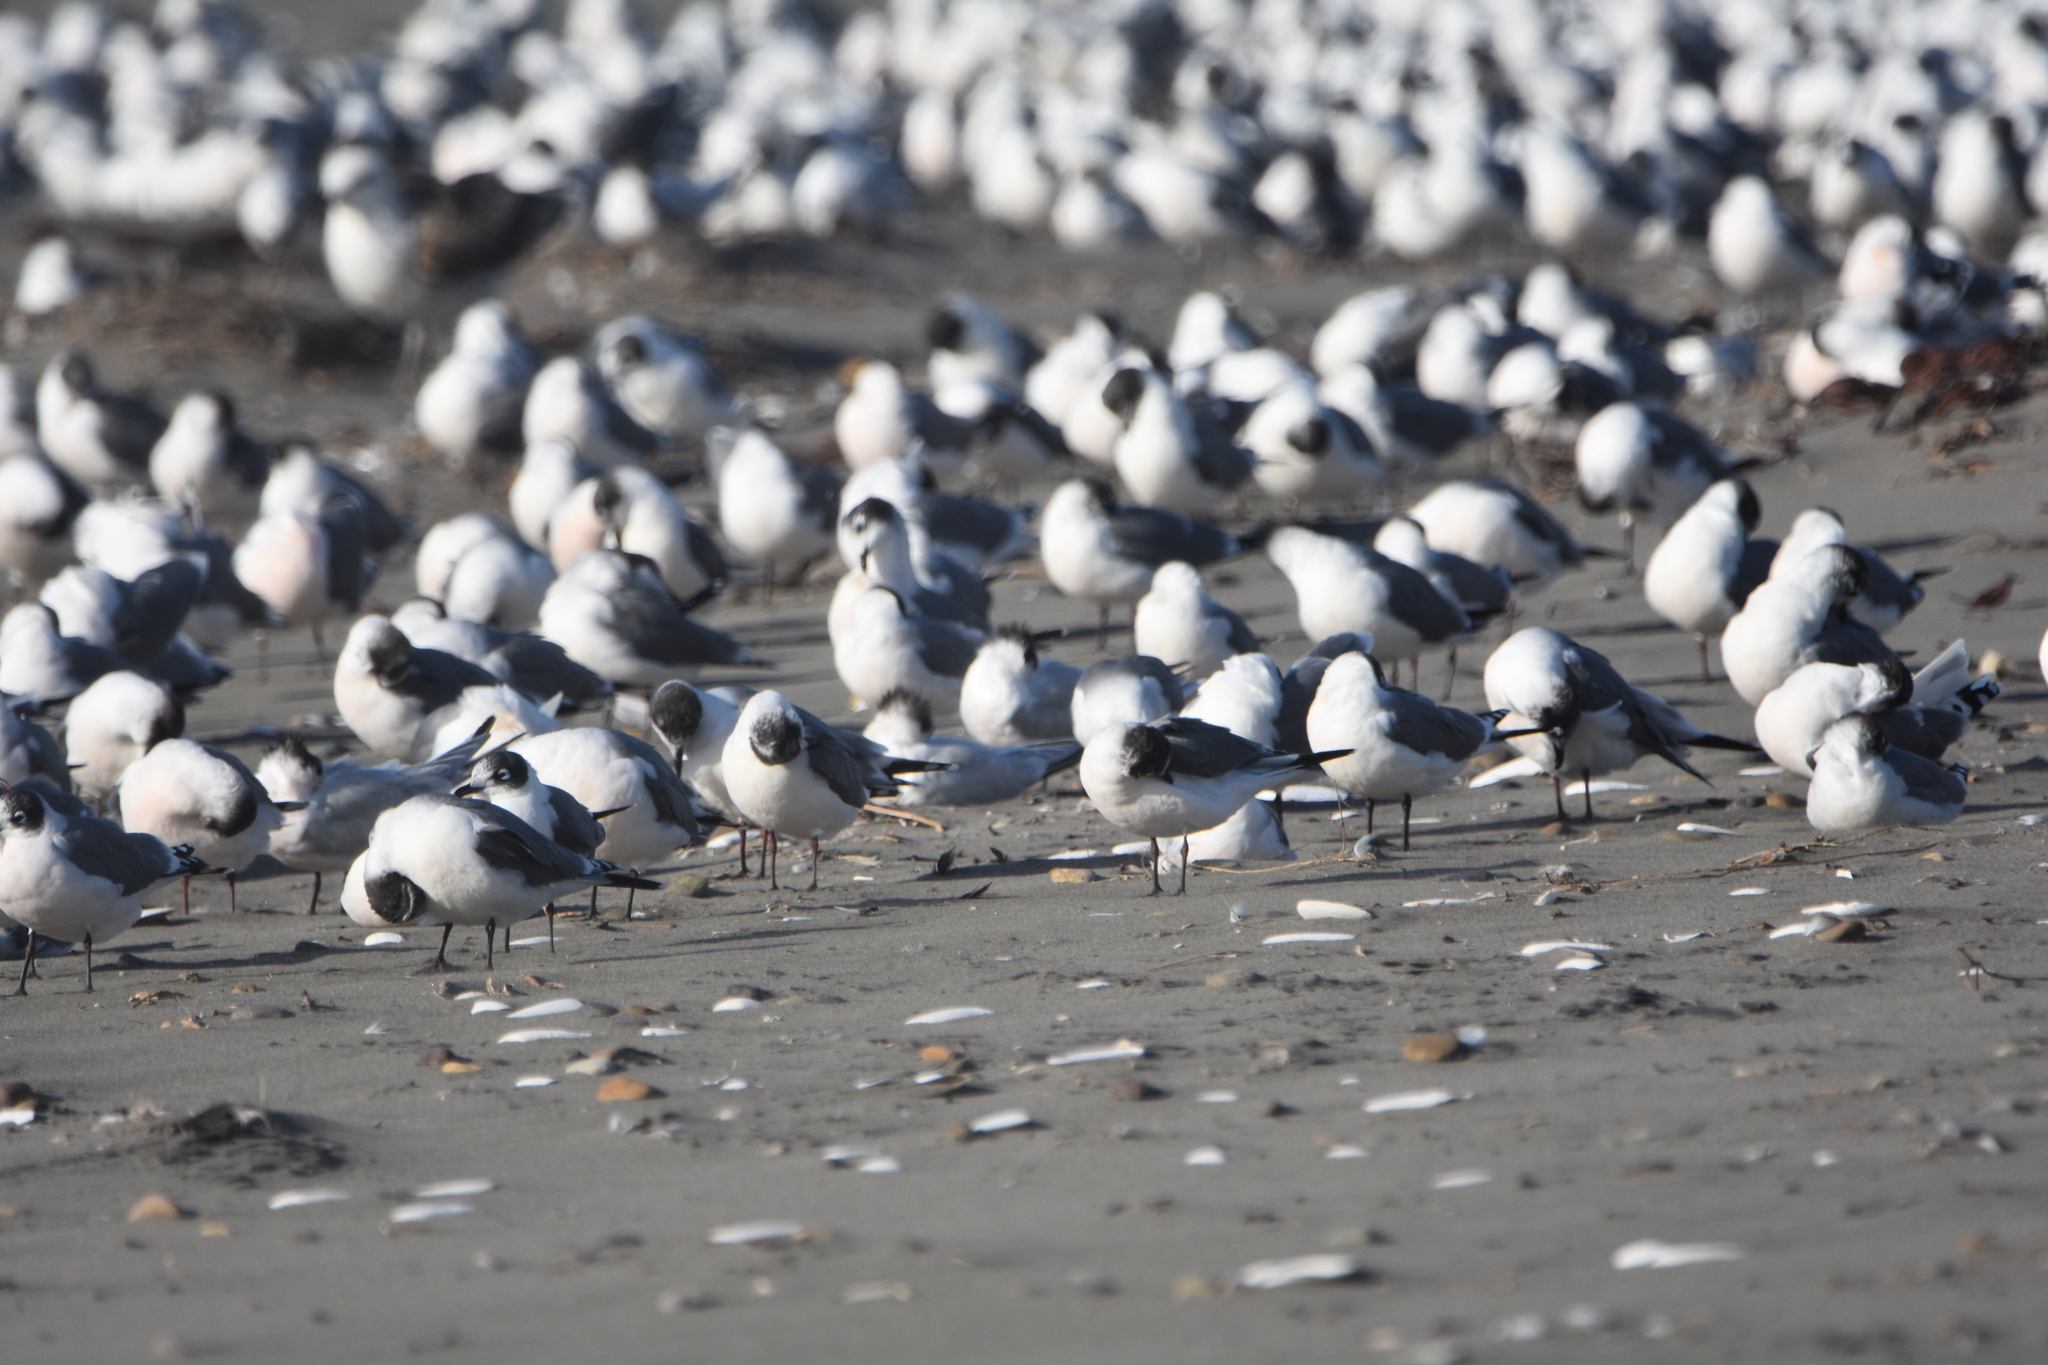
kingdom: Animalia
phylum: Chordata
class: Aves
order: Charadriiformes
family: Laridae
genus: Leucophaeus
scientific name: Leucophaeus pipixcan
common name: Franklin's gull
